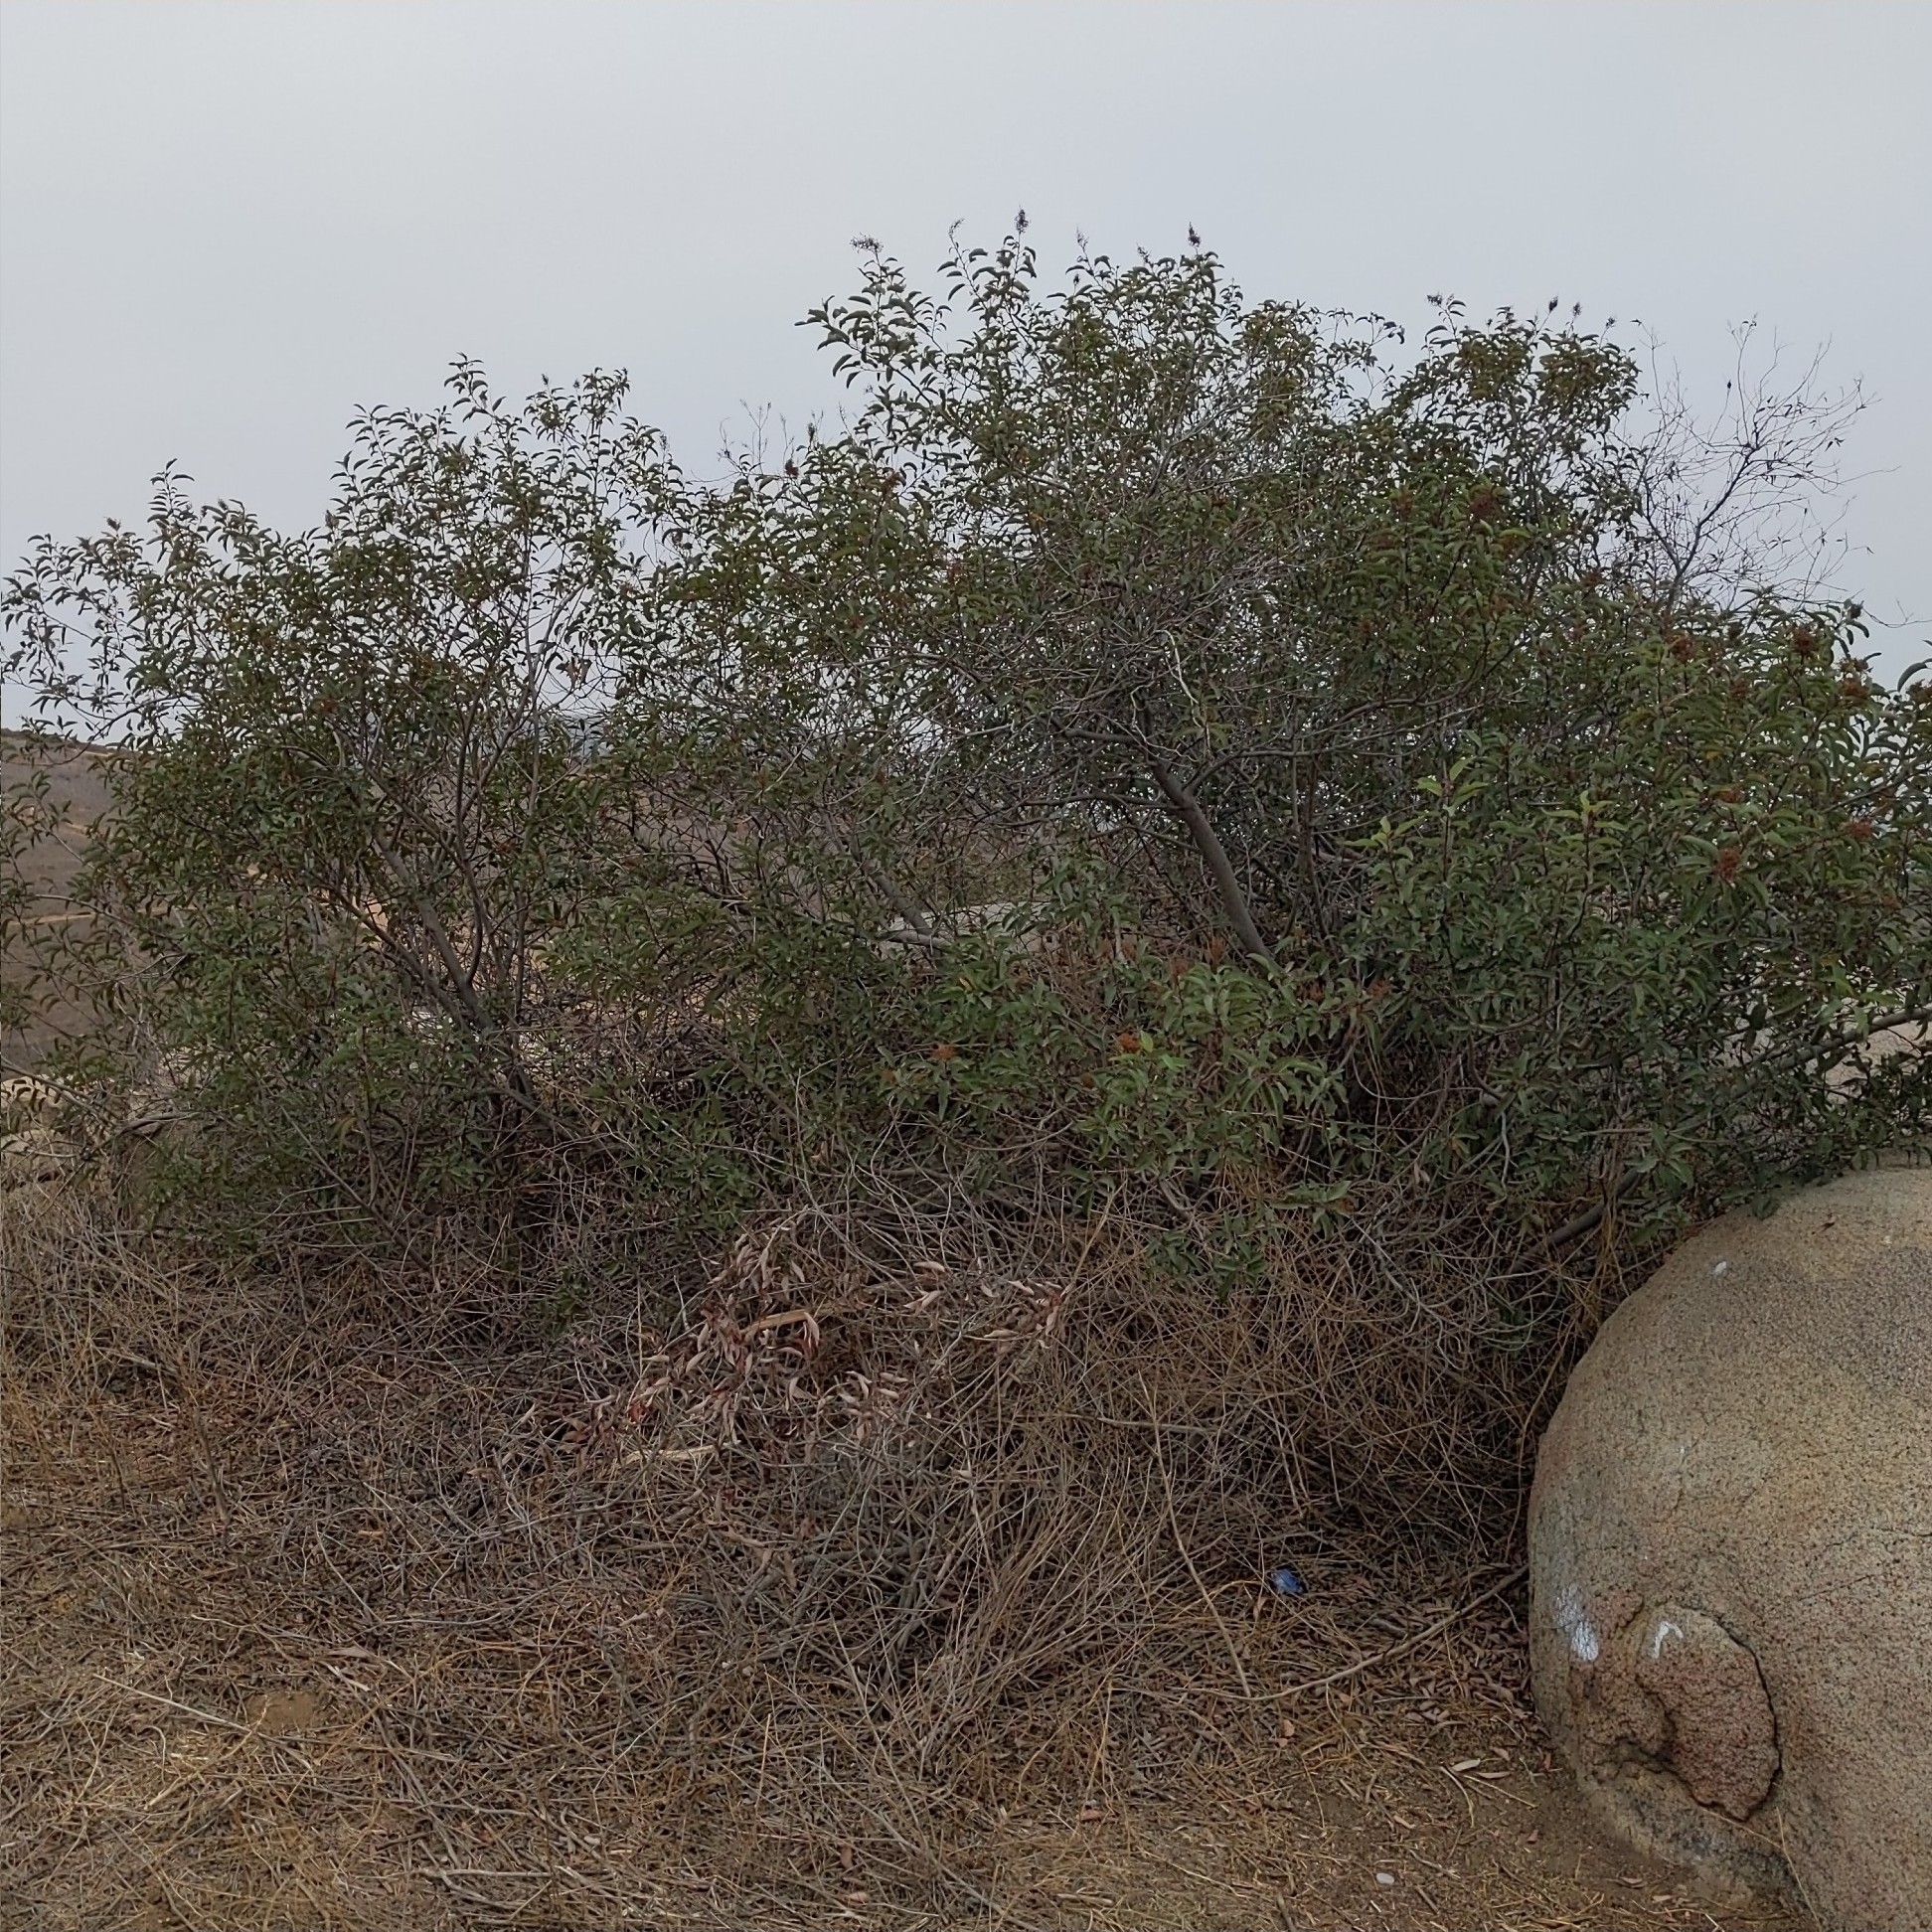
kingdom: Plantae
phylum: Tracheophyta
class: Magnoliopsida
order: Sapindales
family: Anacardiaceae
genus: Malosma
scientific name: Malosma laurina
